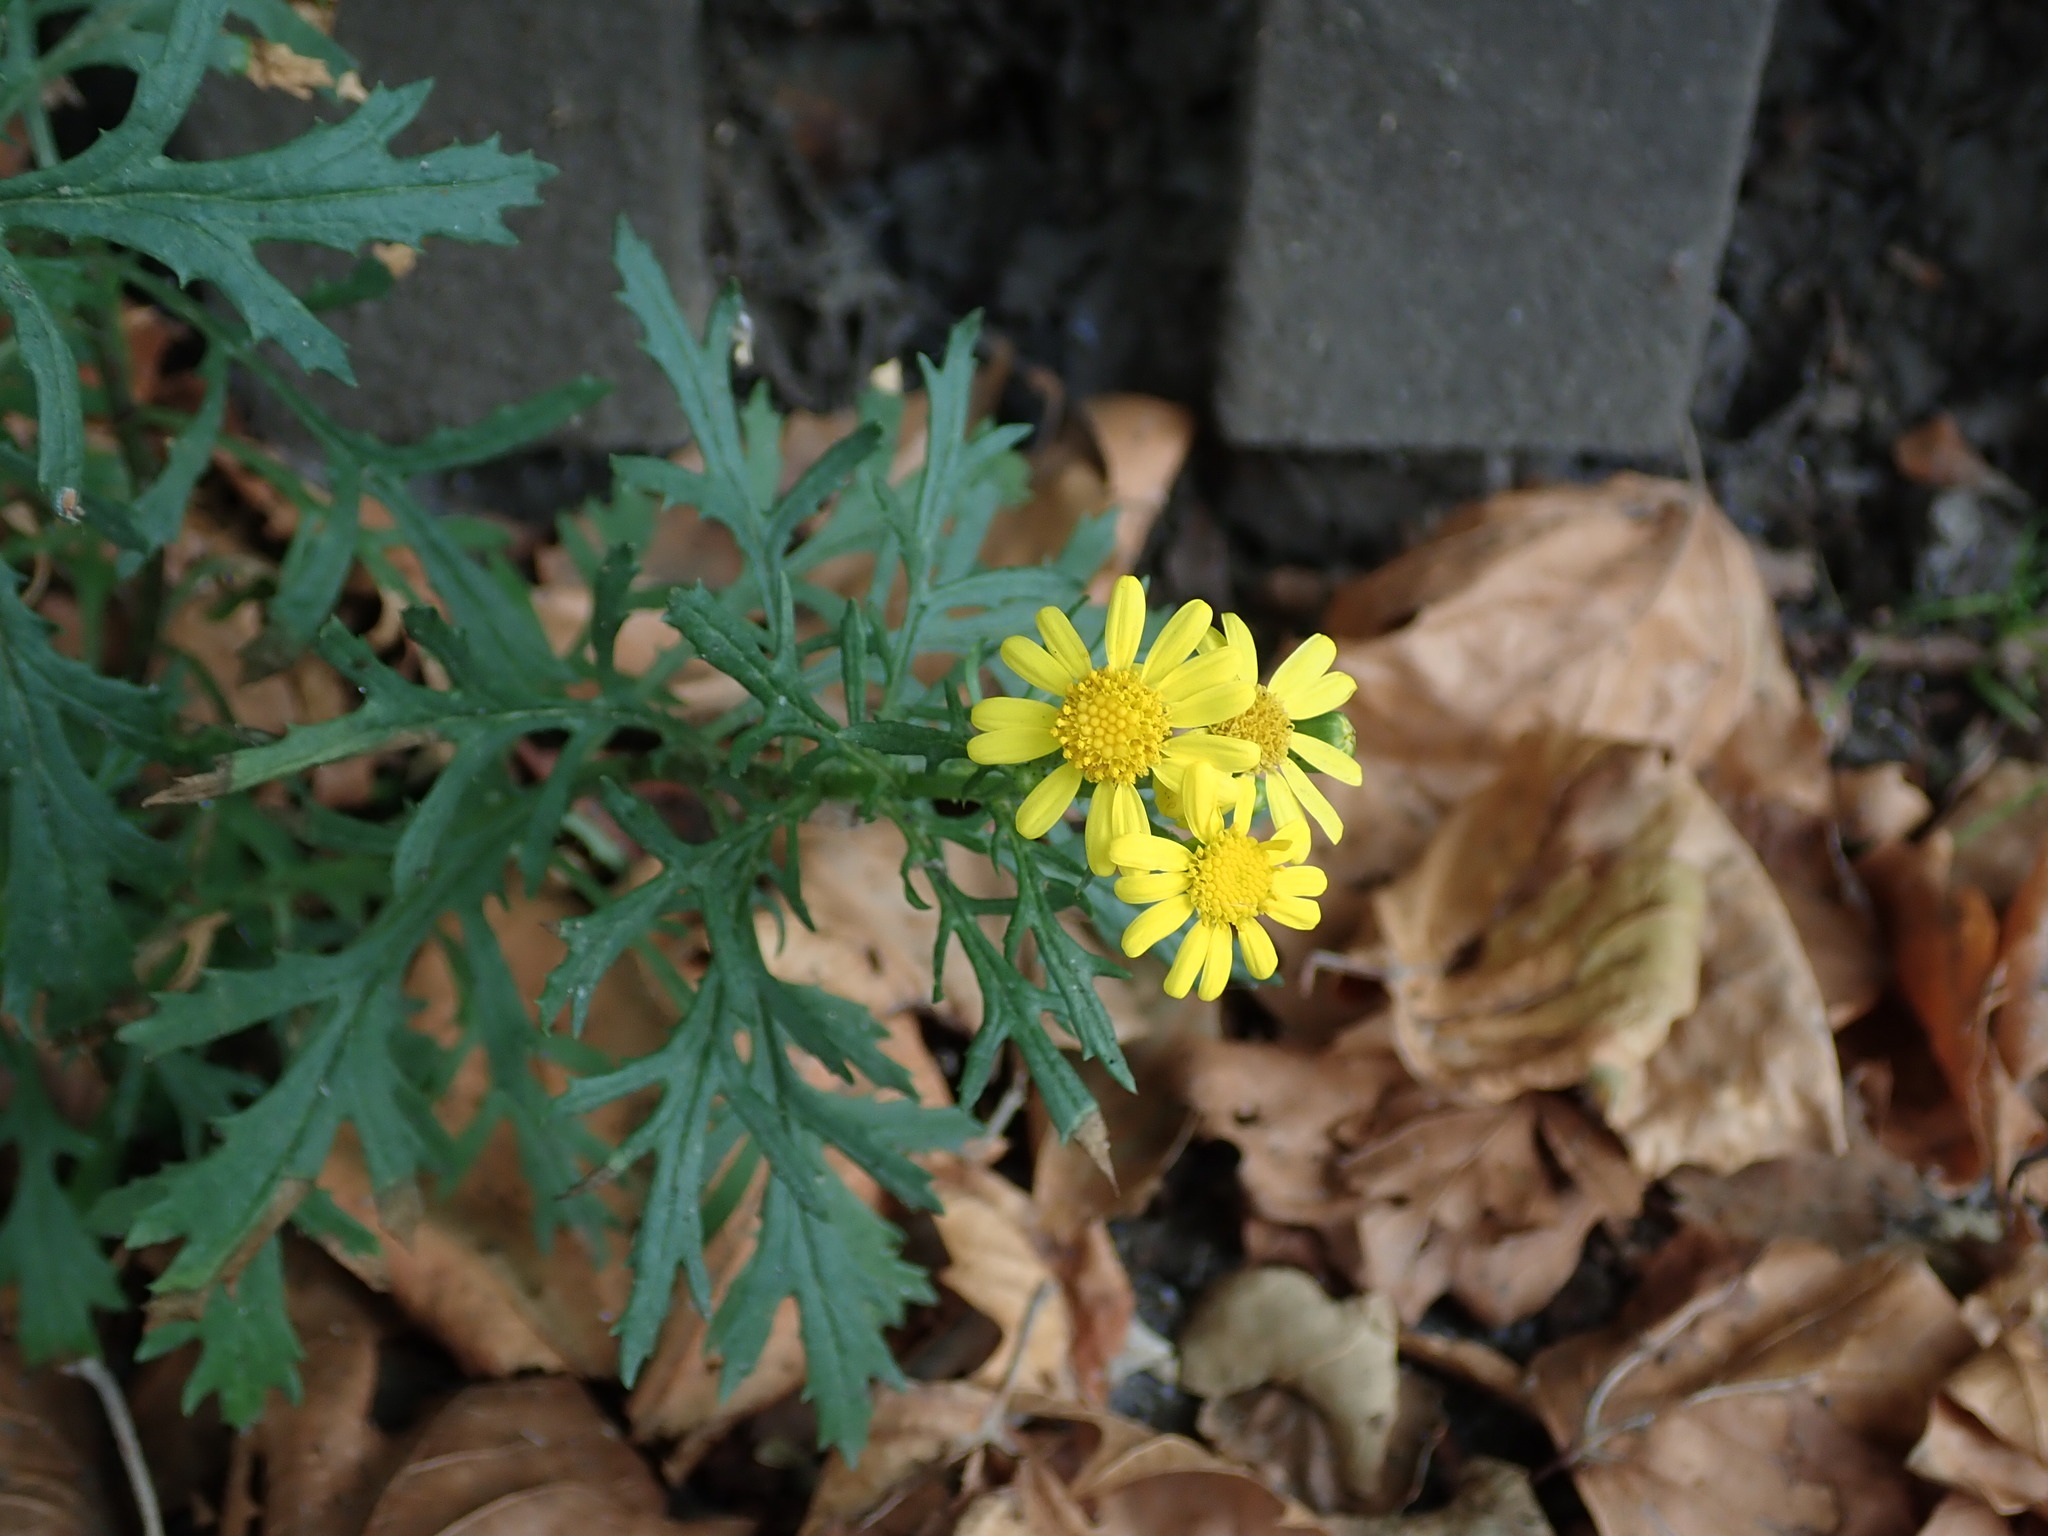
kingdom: Plantae
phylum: Tracheophyta
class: Magnoliopsida
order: Asterales
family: Asteraceae
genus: Senecio
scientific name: Senecio squalidus
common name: Oxford ragwort
